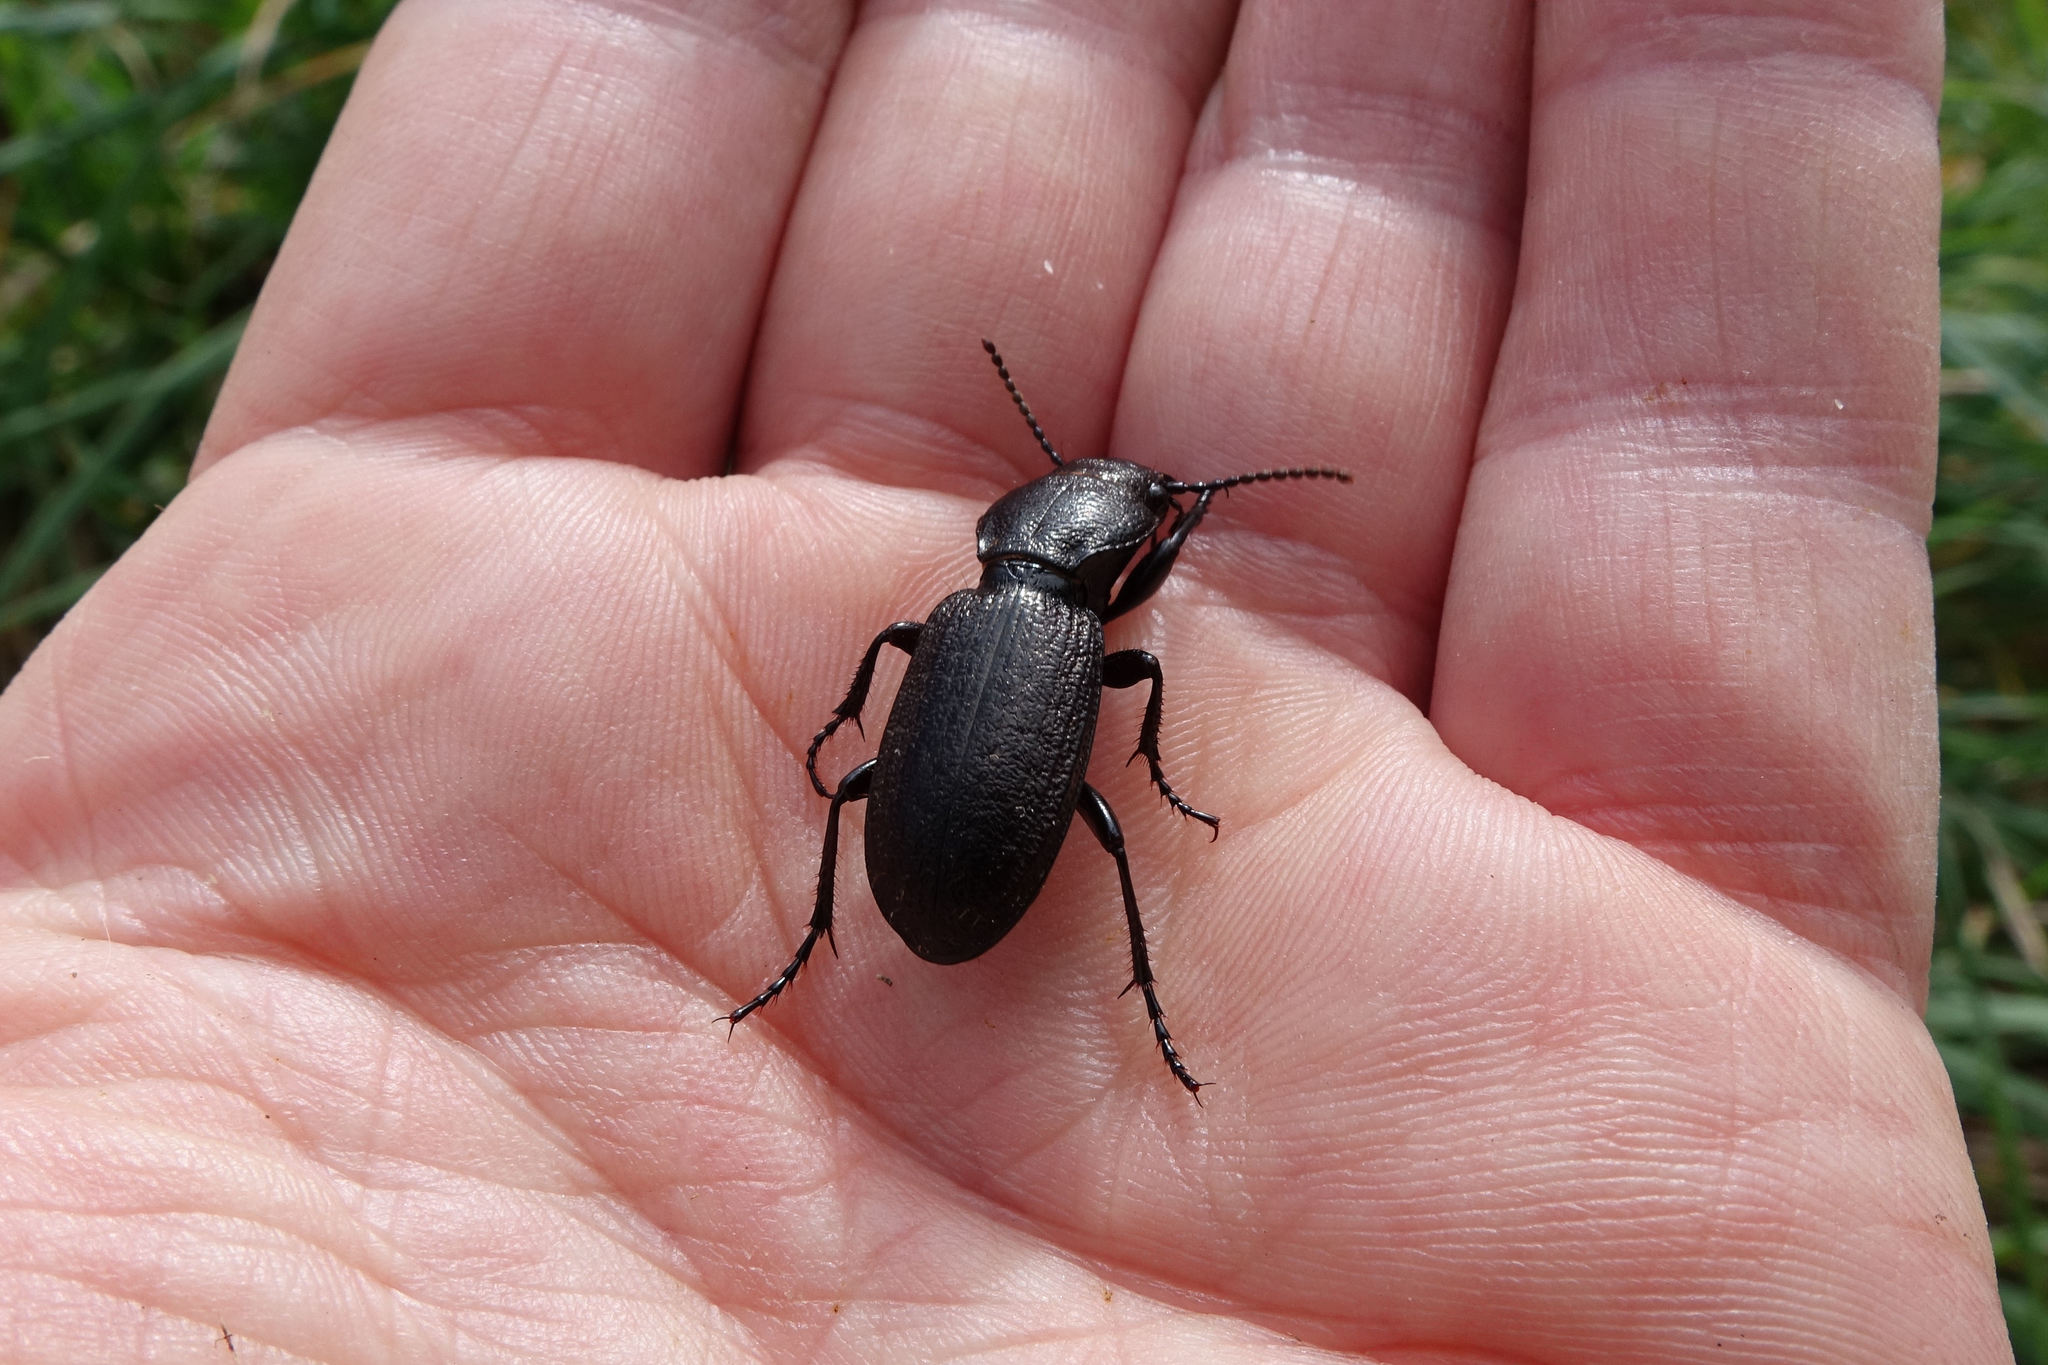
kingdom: Animalia
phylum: Arthropoda
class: Insecta
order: Coleoptera
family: Carabidae
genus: Mecodema
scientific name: Mecodema sculpturatum
